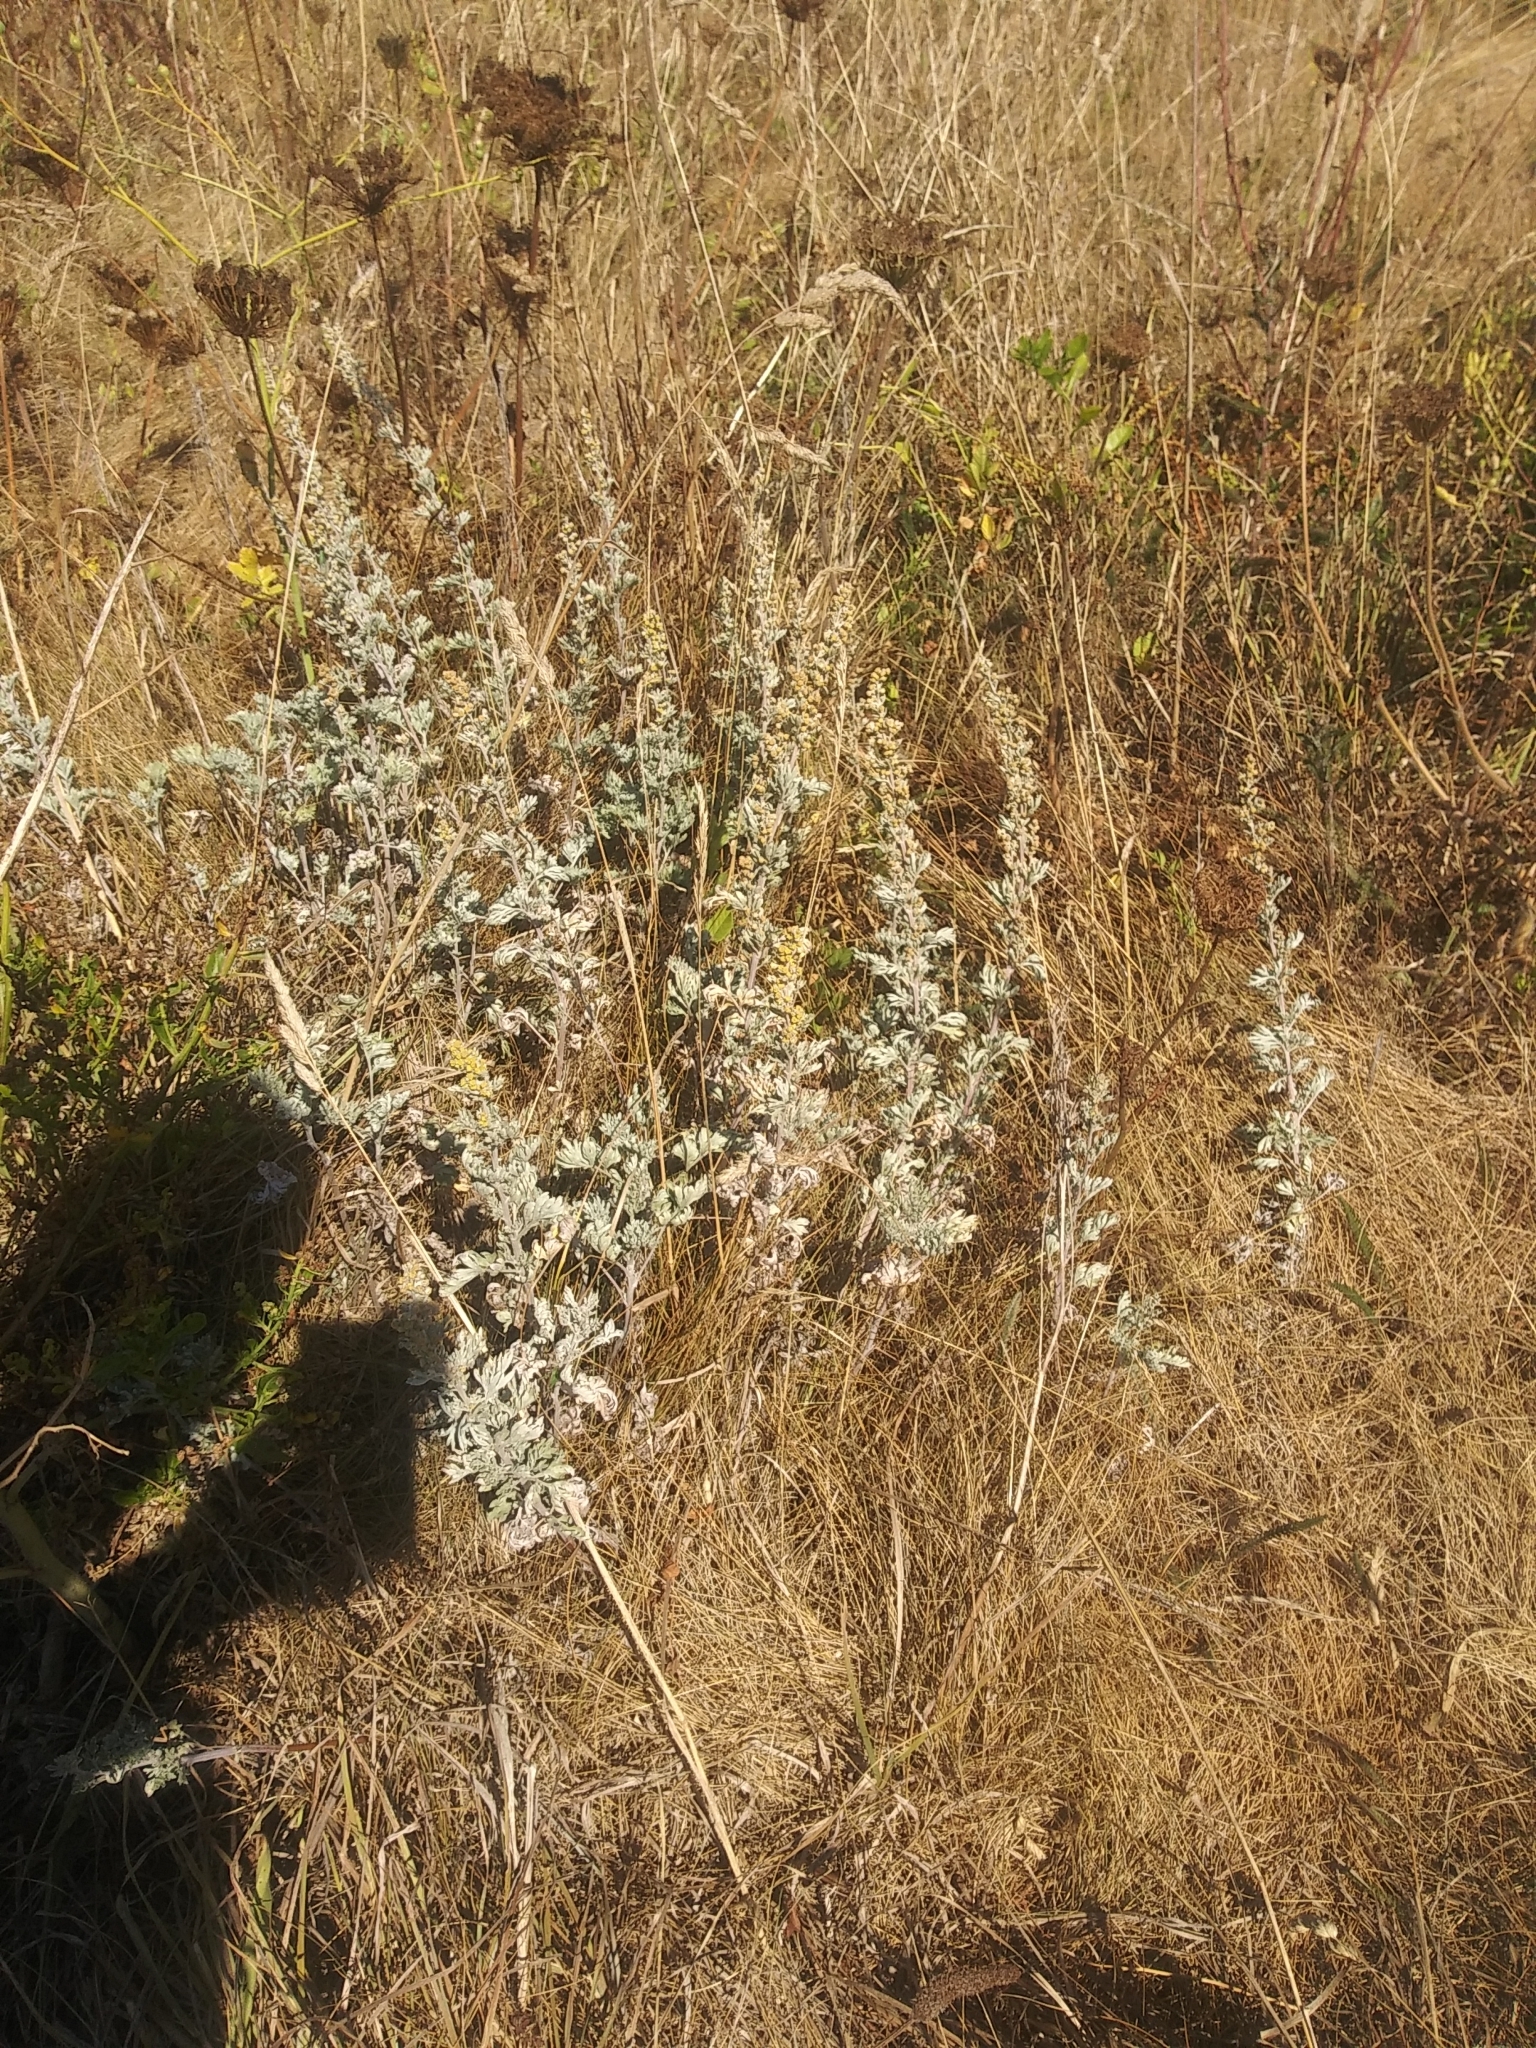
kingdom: Plantae
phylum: Tracheophyta
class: Magnoliopsida
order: Asterales
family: Asteraceae
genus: Artemisia
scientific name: Artemisia maritima
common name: Wormseed
